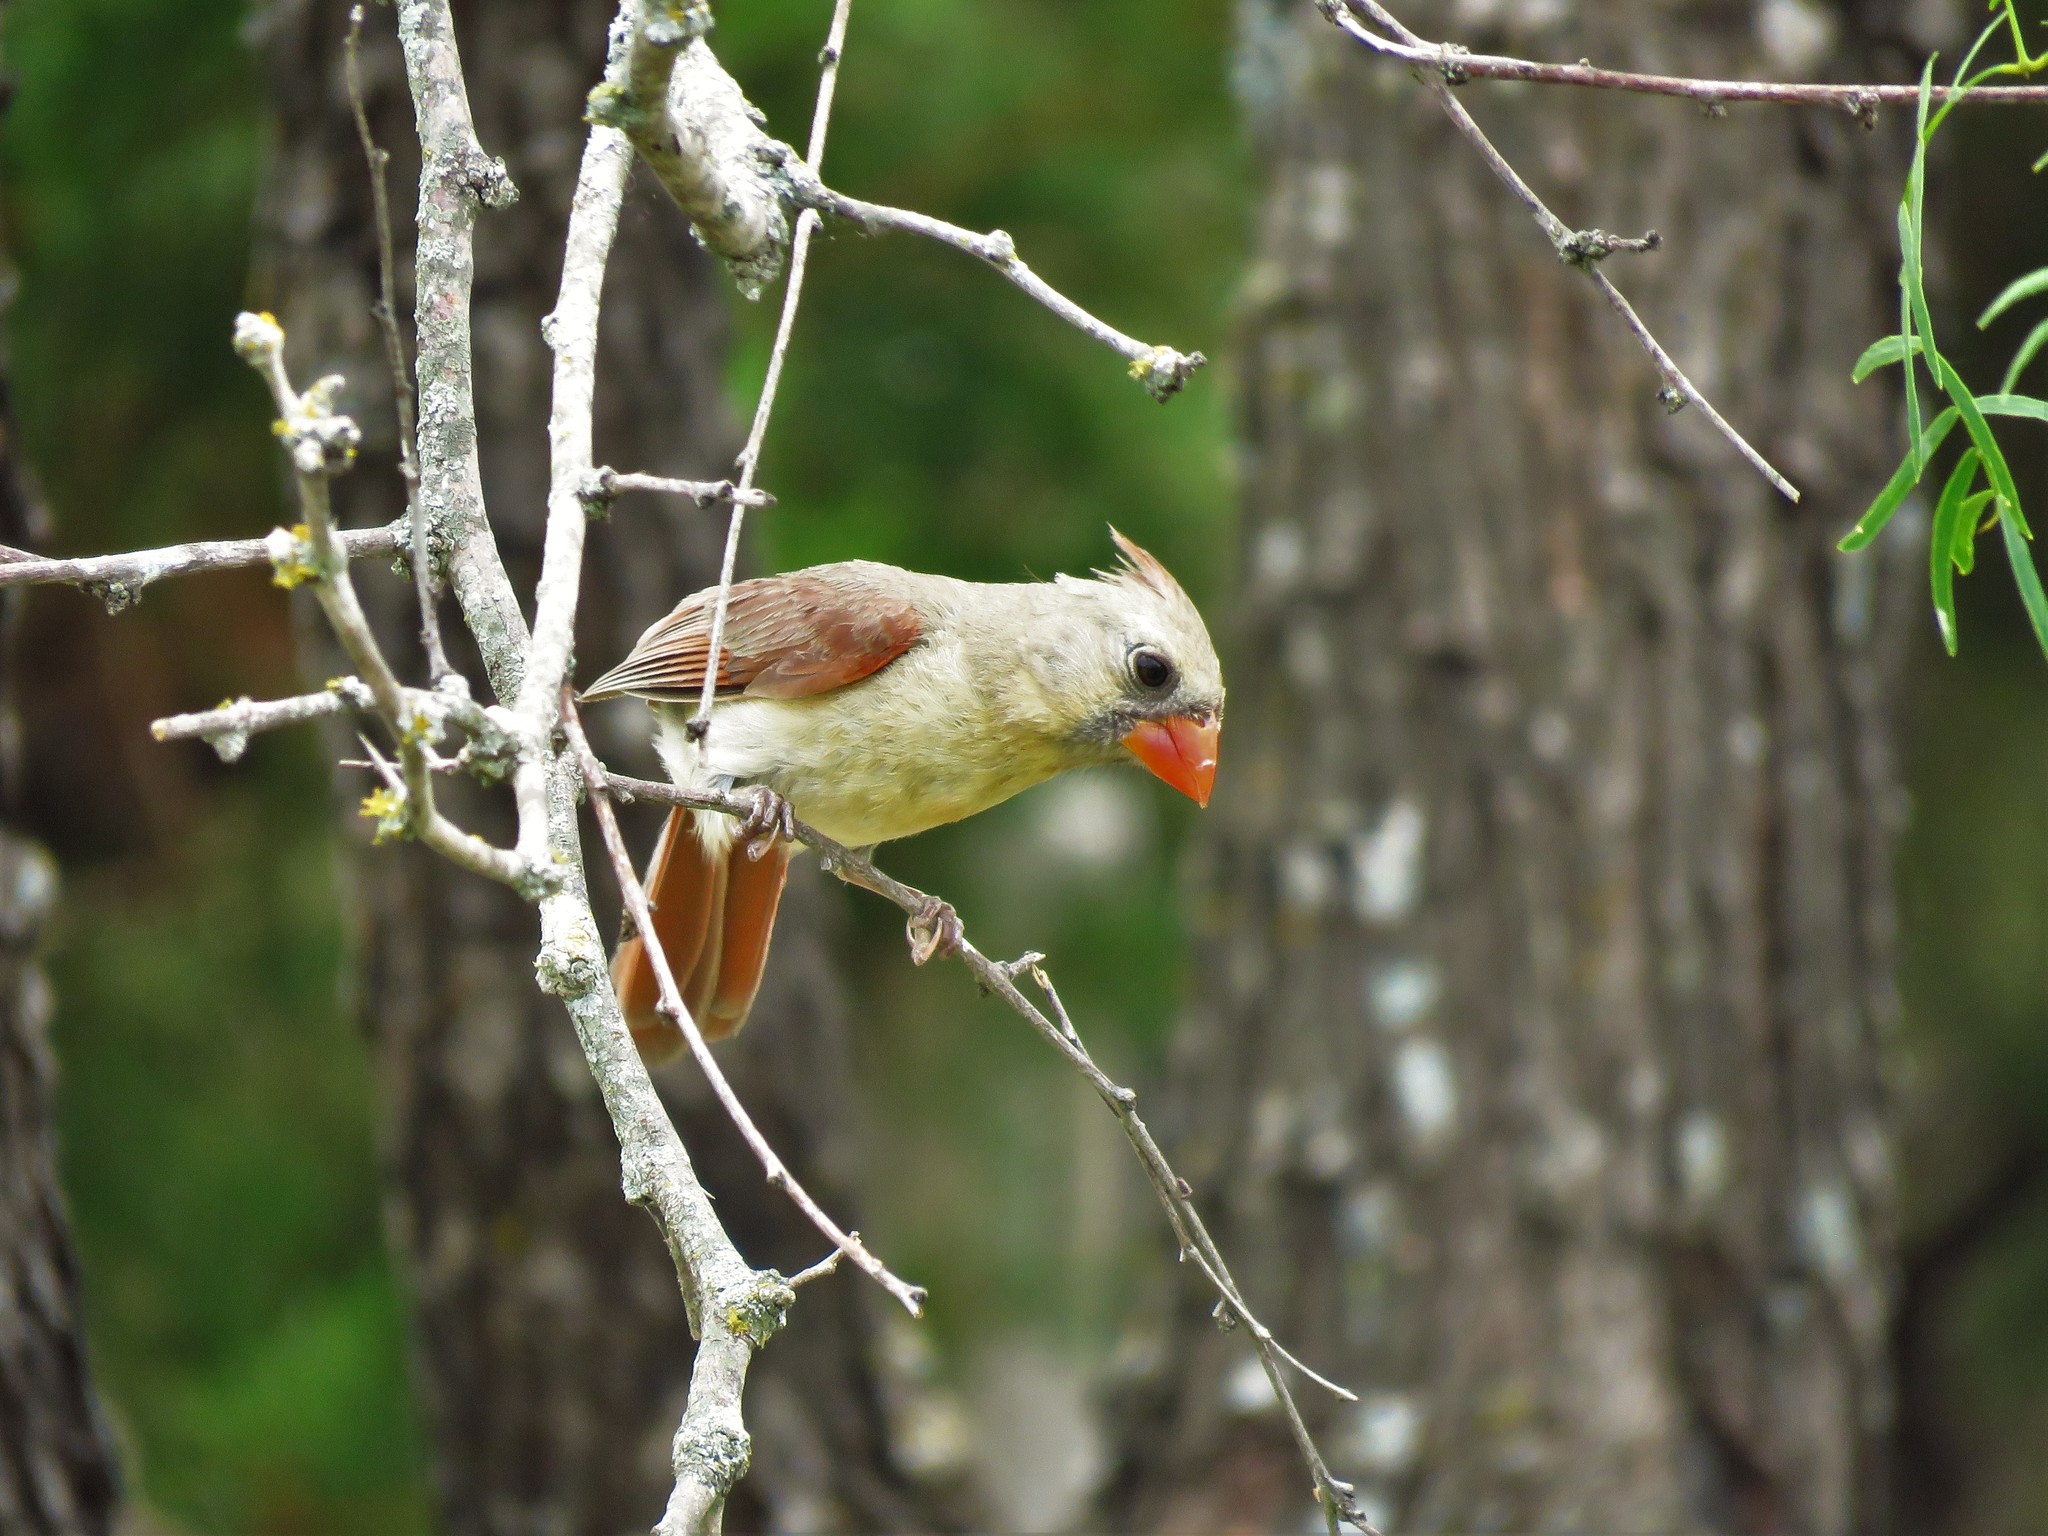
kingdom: Animalia
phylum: Chordata
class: Aves
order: Passeriformes
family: Cardinalidae
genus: Cardinalis
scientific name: Cardinalis cardinalis
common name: Northern cardinal
